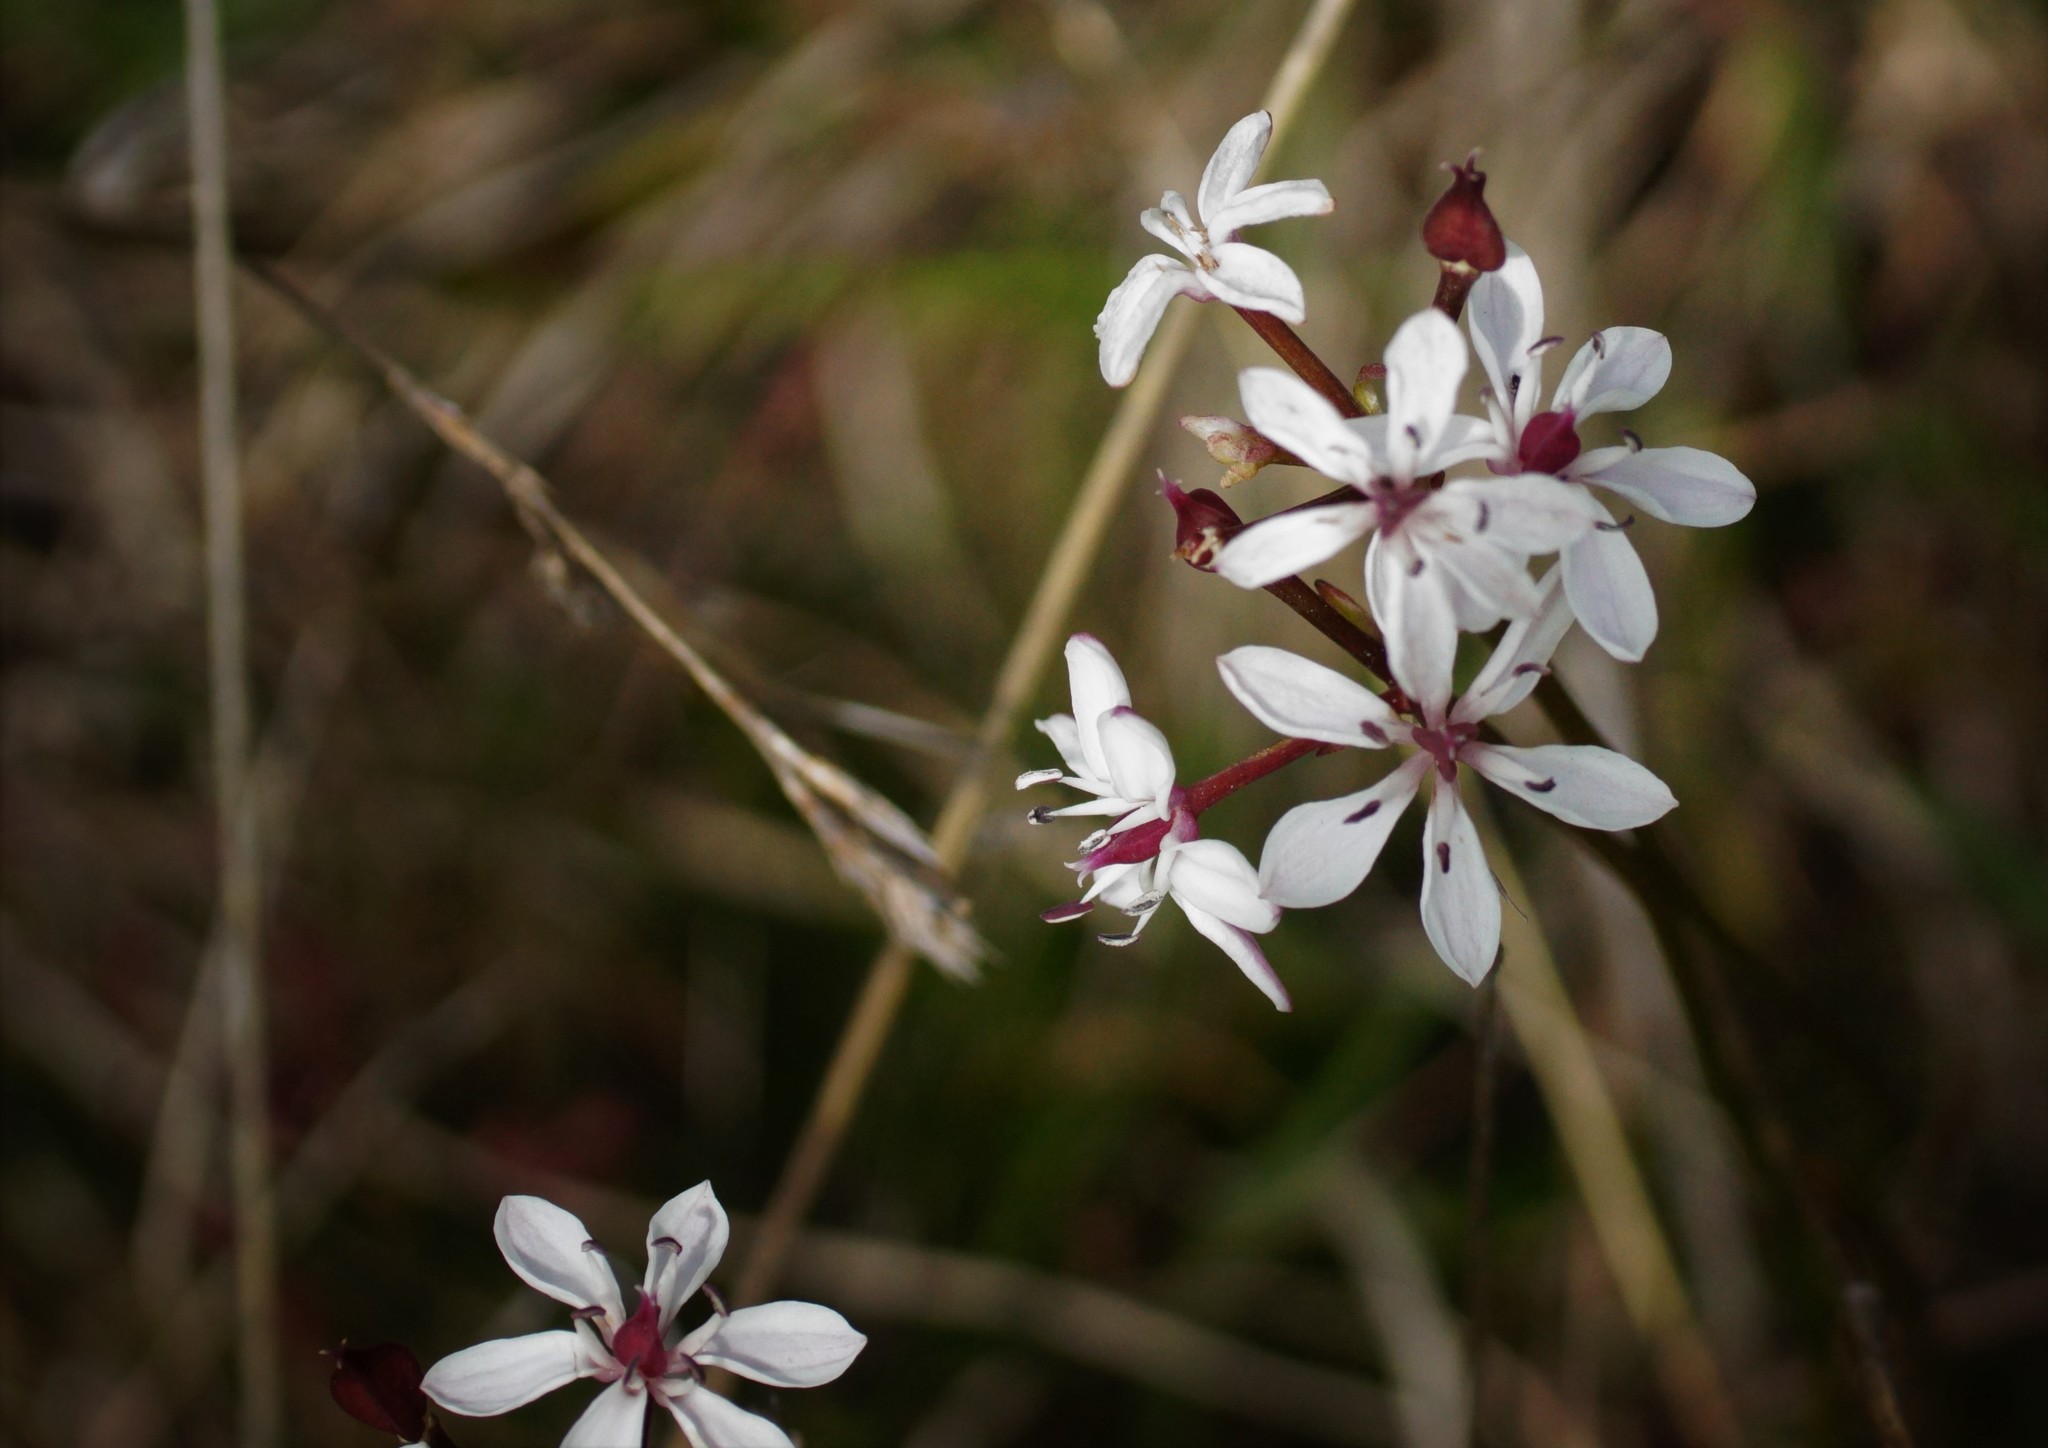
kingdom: Plantae
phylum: Tracheophyta
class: Liliopsida
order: Liliales
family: Colchicaceae
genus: Burchardia
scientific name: Burchardia umbellata
